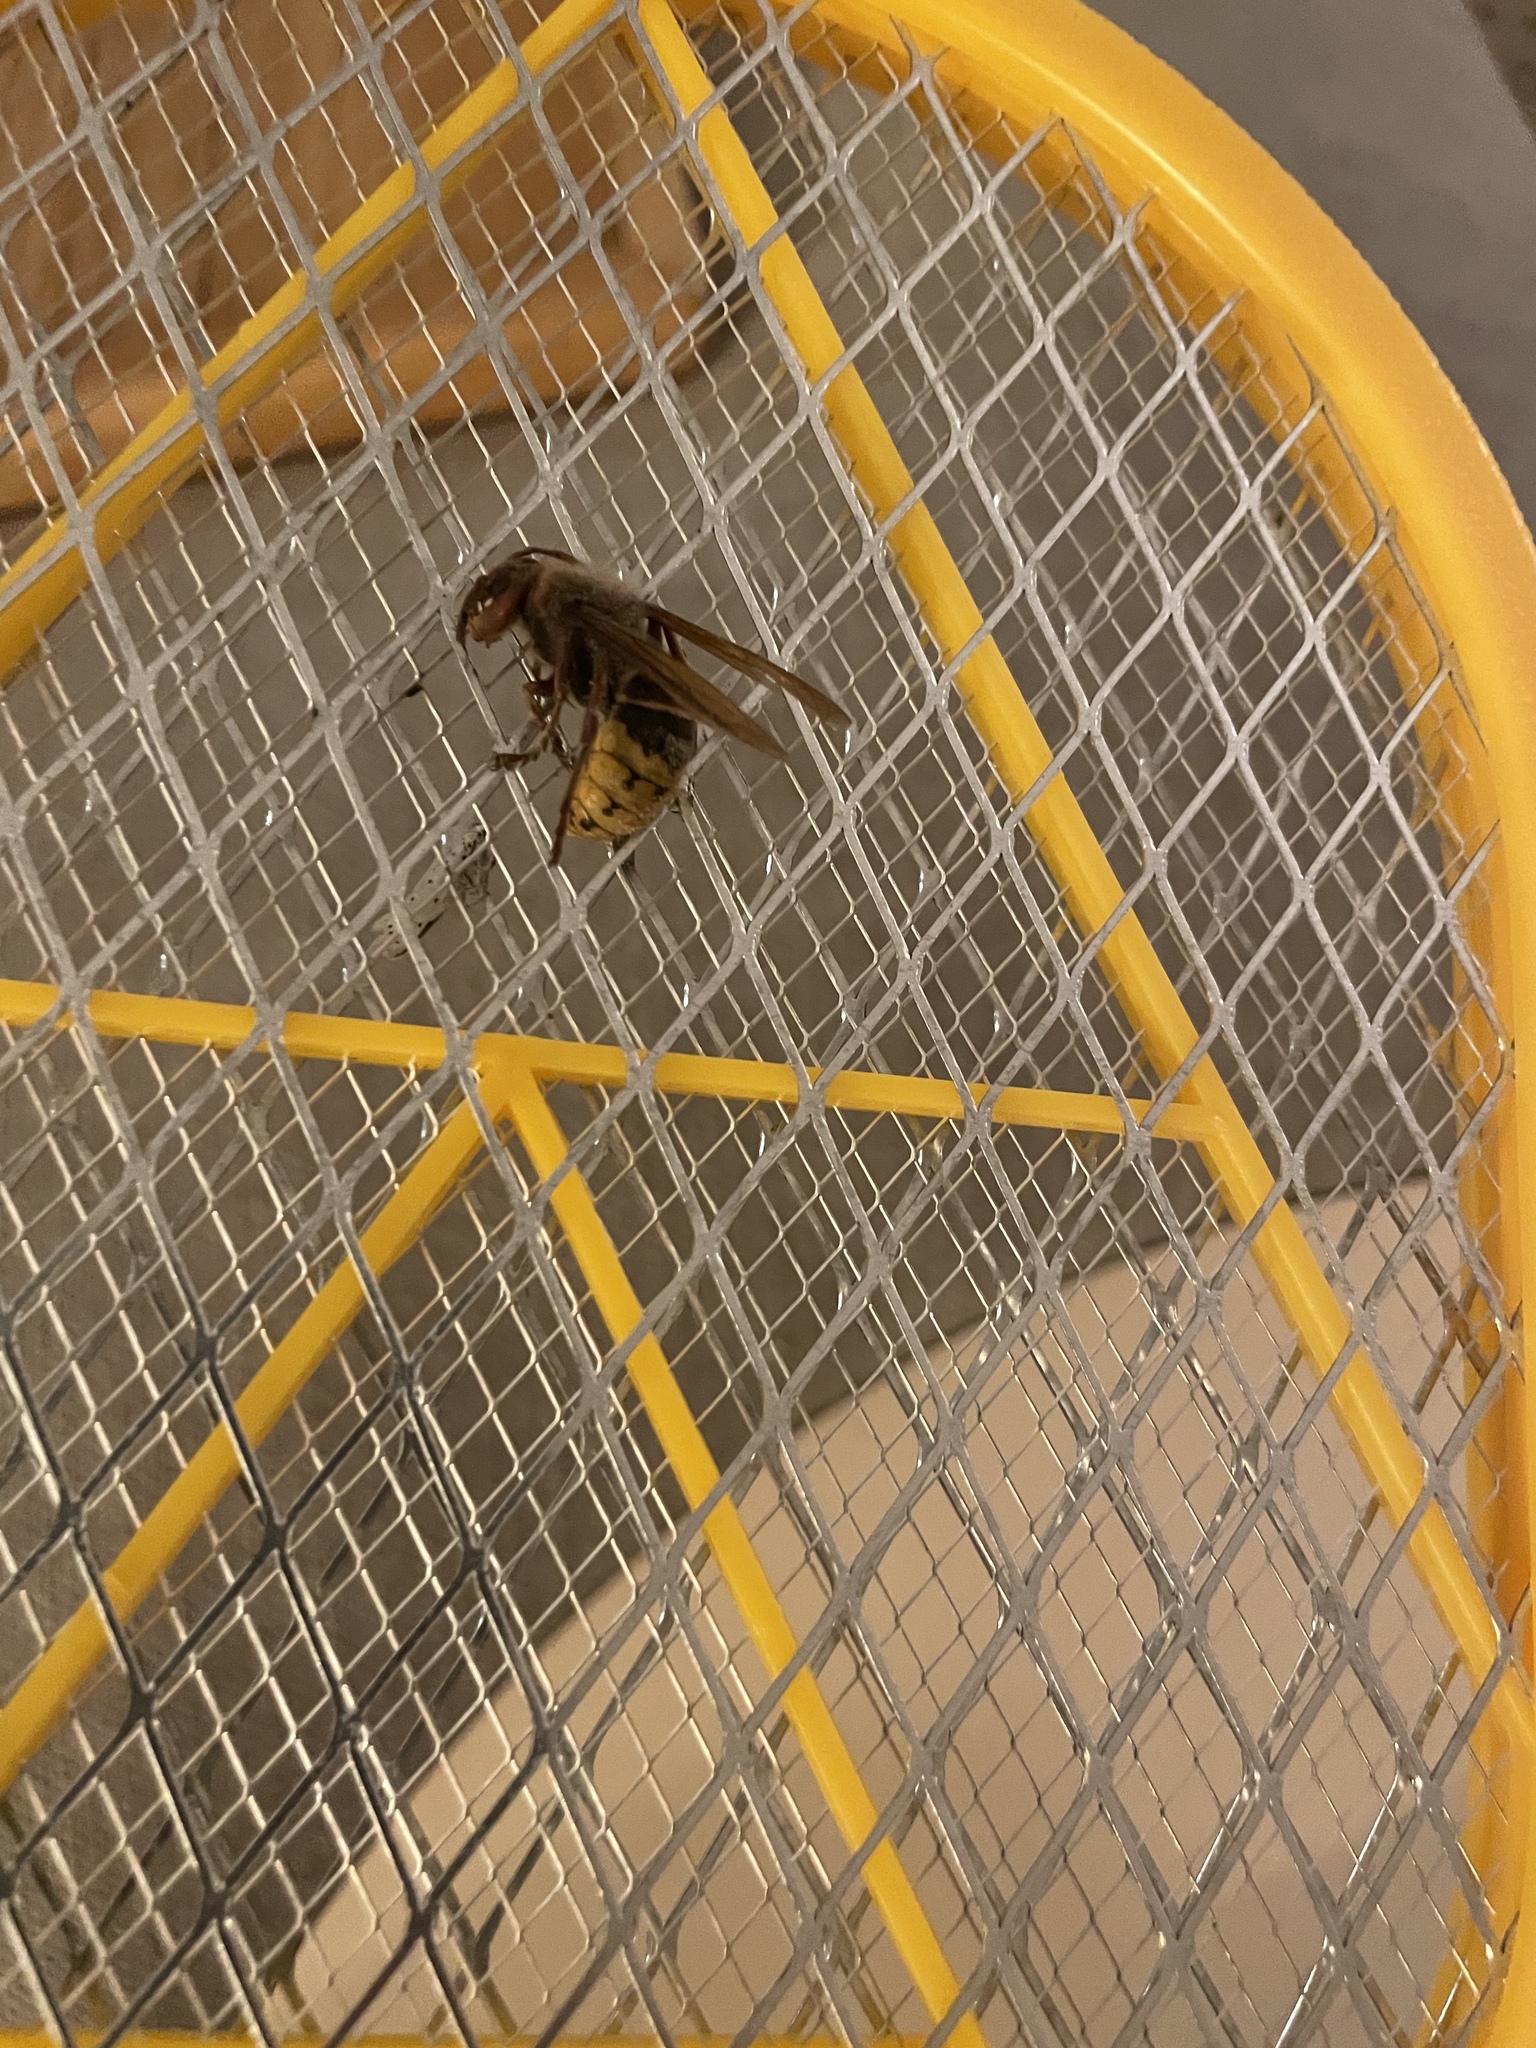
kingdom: Animalia
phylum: Arthropoda
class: Insecta
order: Hymenoptera
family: Vespidae
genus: Vespa
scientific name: Vespa crabro
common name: Hornet
